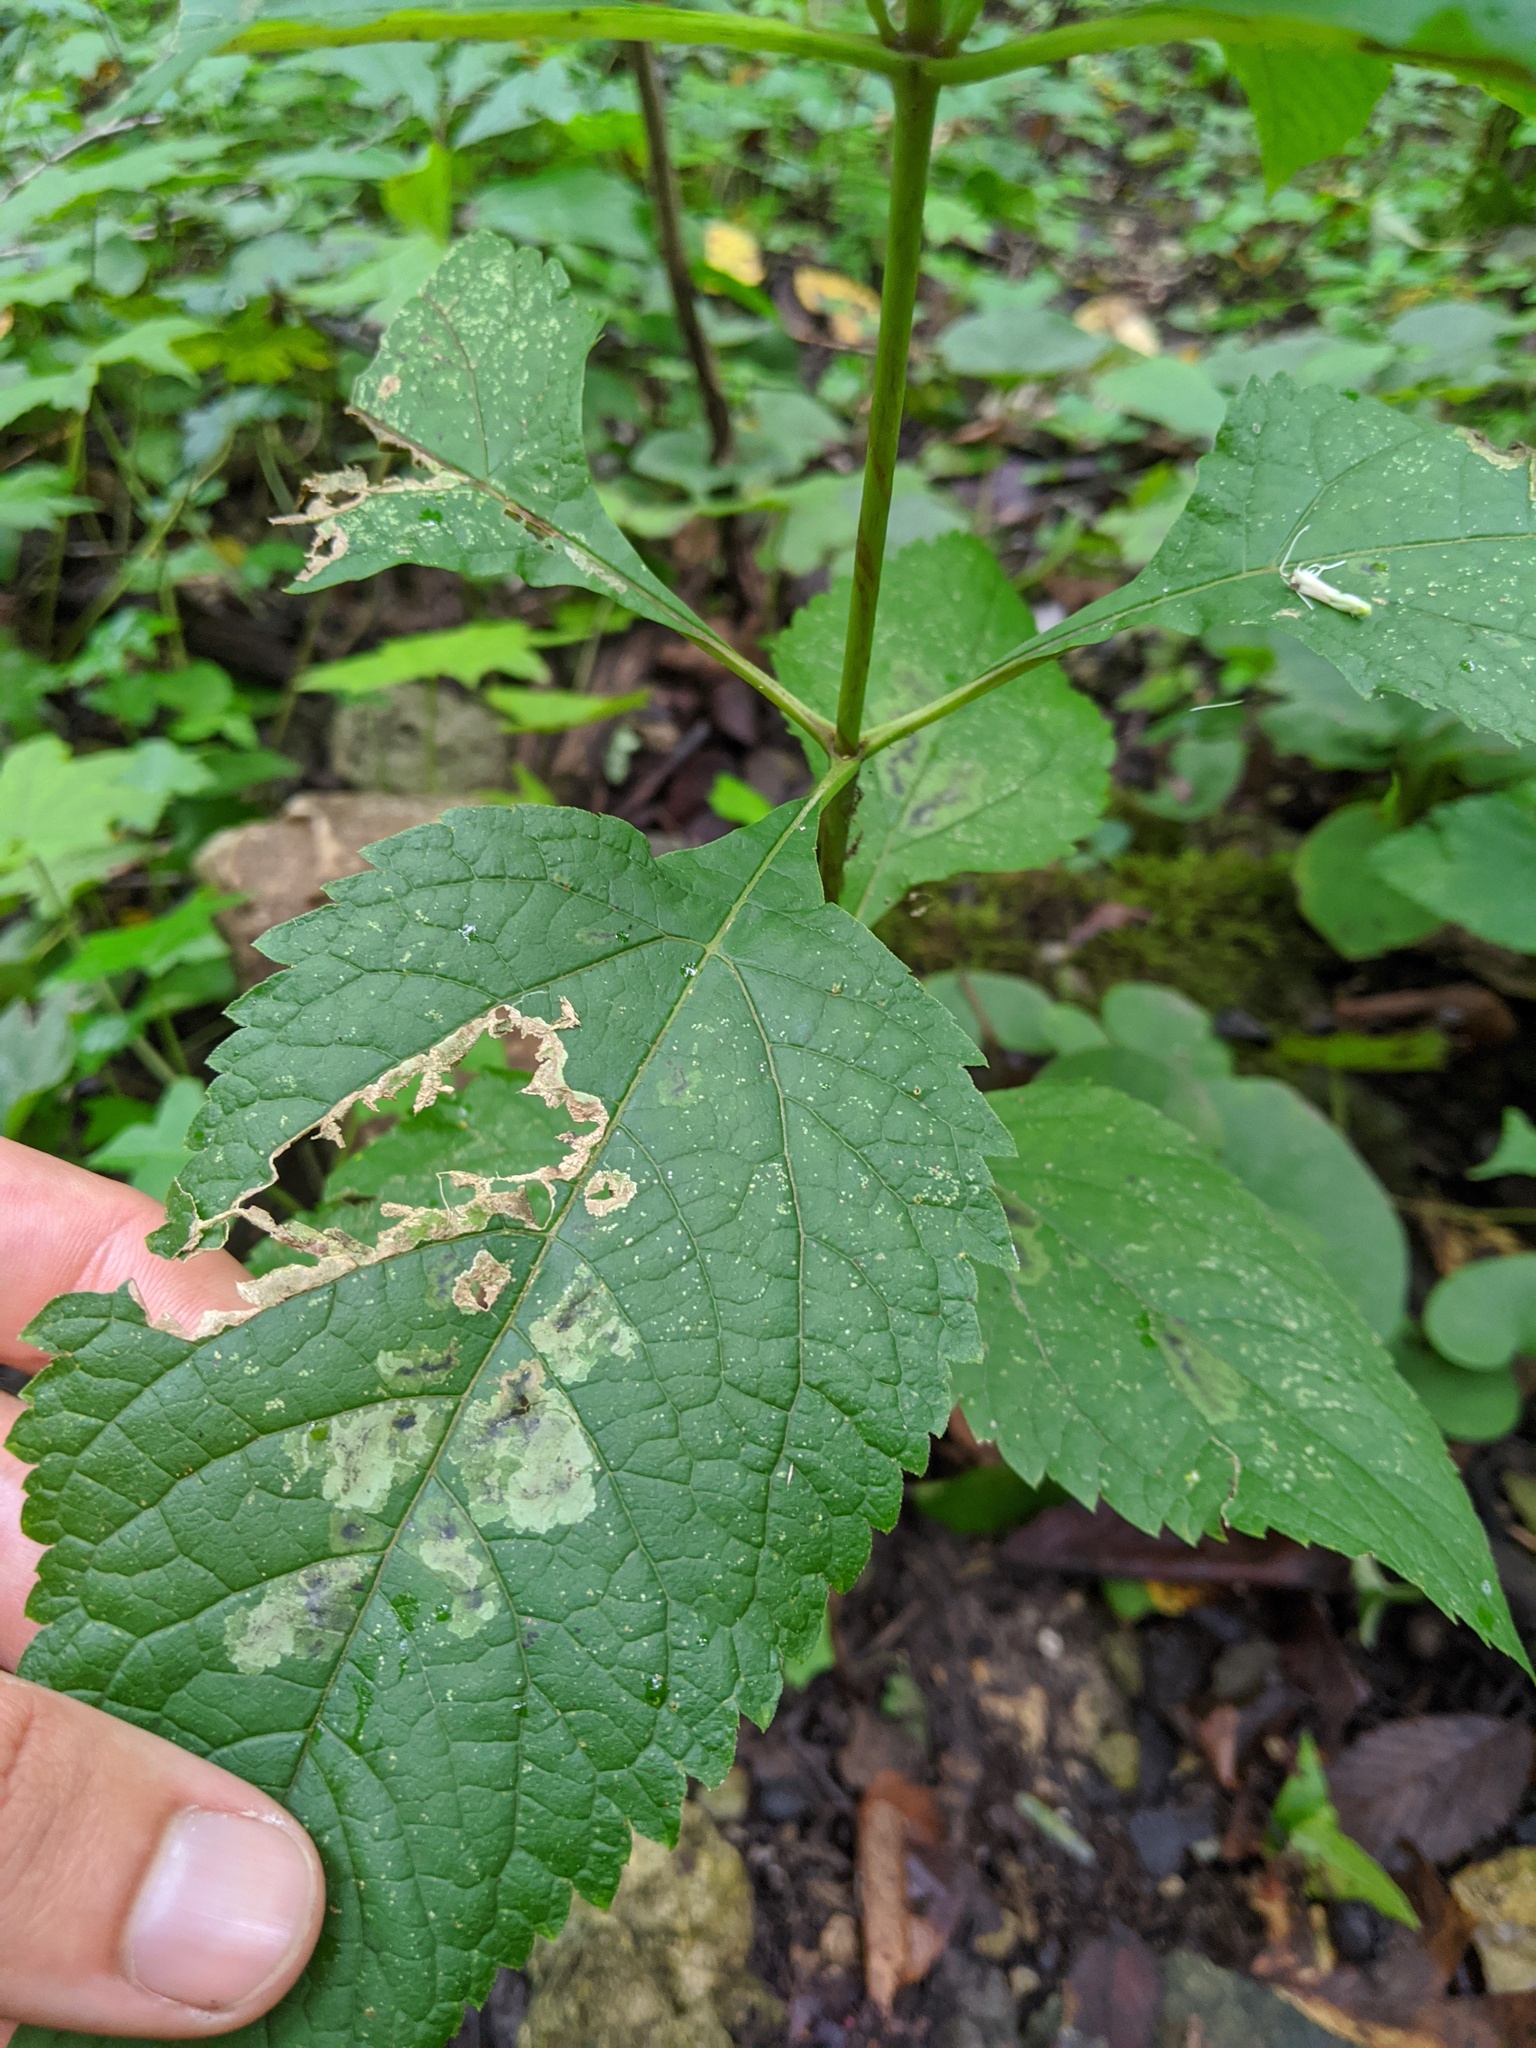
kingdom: Plantae
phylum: Tracheophyta
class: Magnoliopsida
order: Asterales
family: Asteraceae
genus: Eutrochium
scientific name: Eutrochium purpureum
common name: Gravelroot
